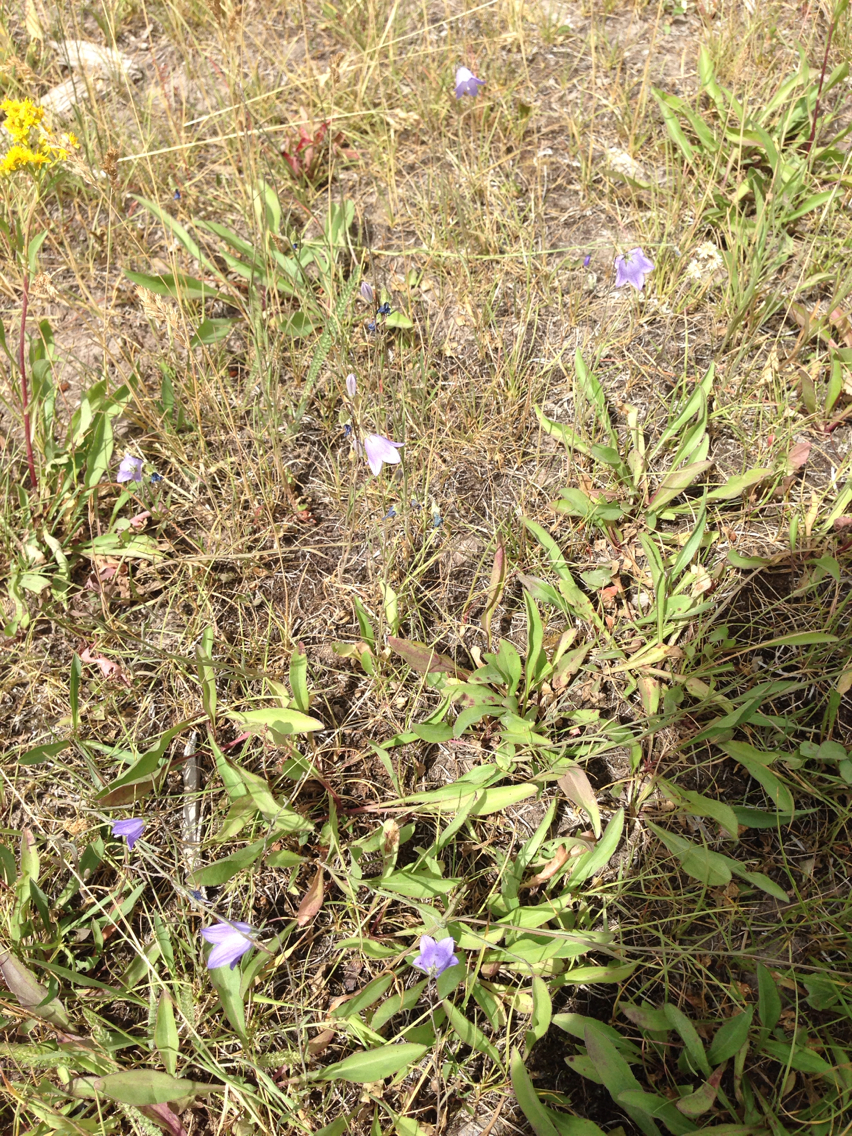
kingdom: Plantae
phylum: Tracheophyta
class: Magnoliopsida
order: Asterales
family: Campanulaceae
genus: Campanula
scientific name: Campanula petiolata
